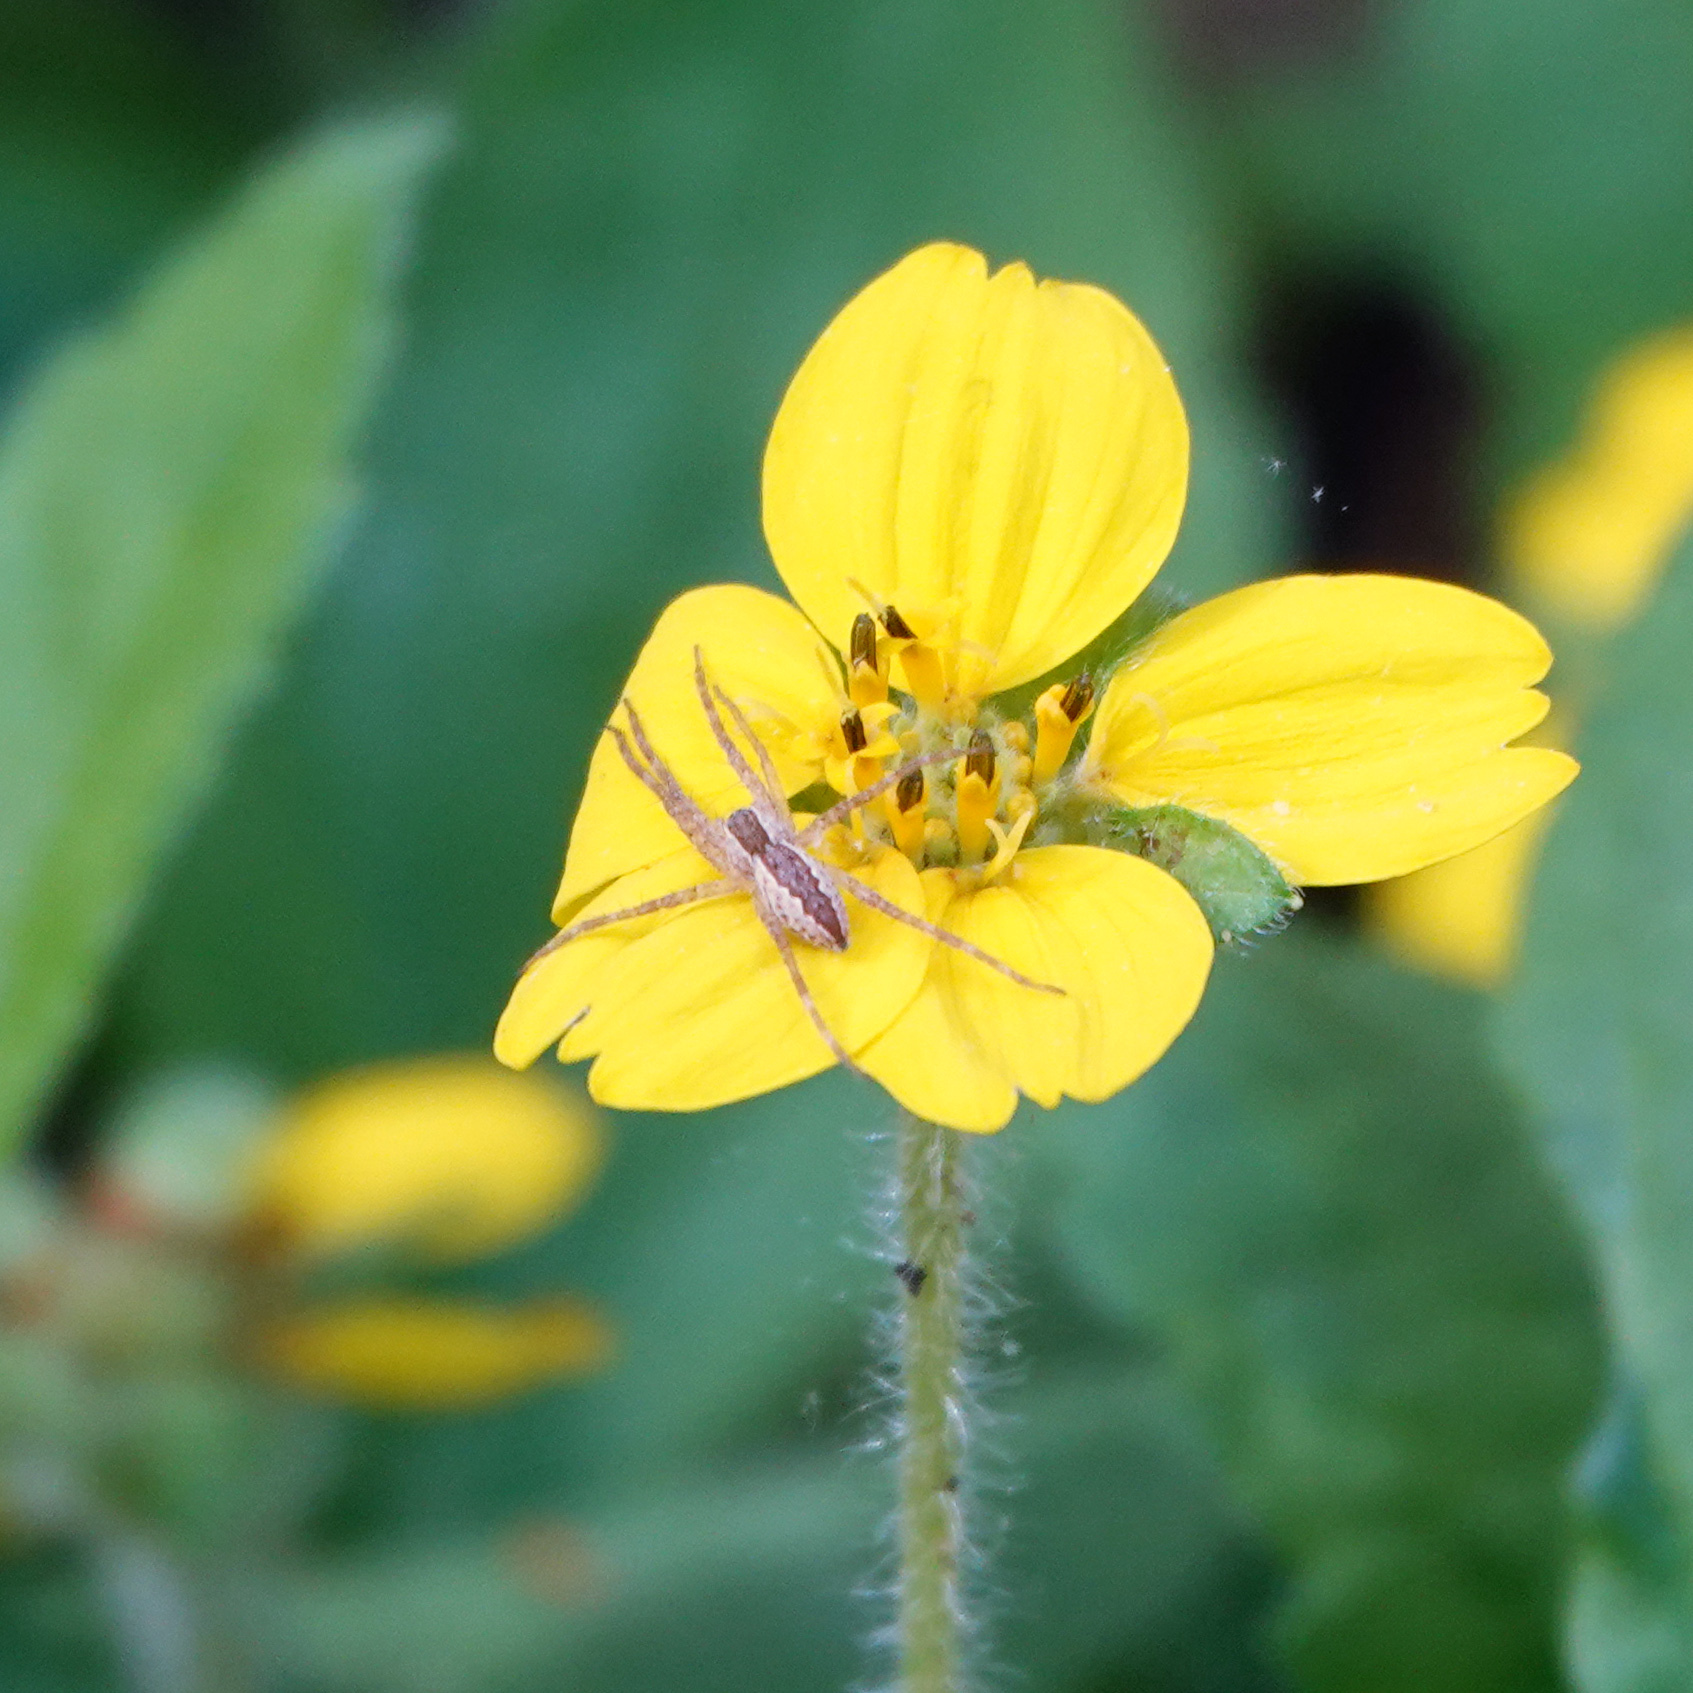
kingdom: Animalia
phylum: Arthropoda
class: Arachnida
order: Araneae
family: Pisauridae
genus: Pisaurina
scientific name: Pisaurina mira
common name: American nursery web spider
